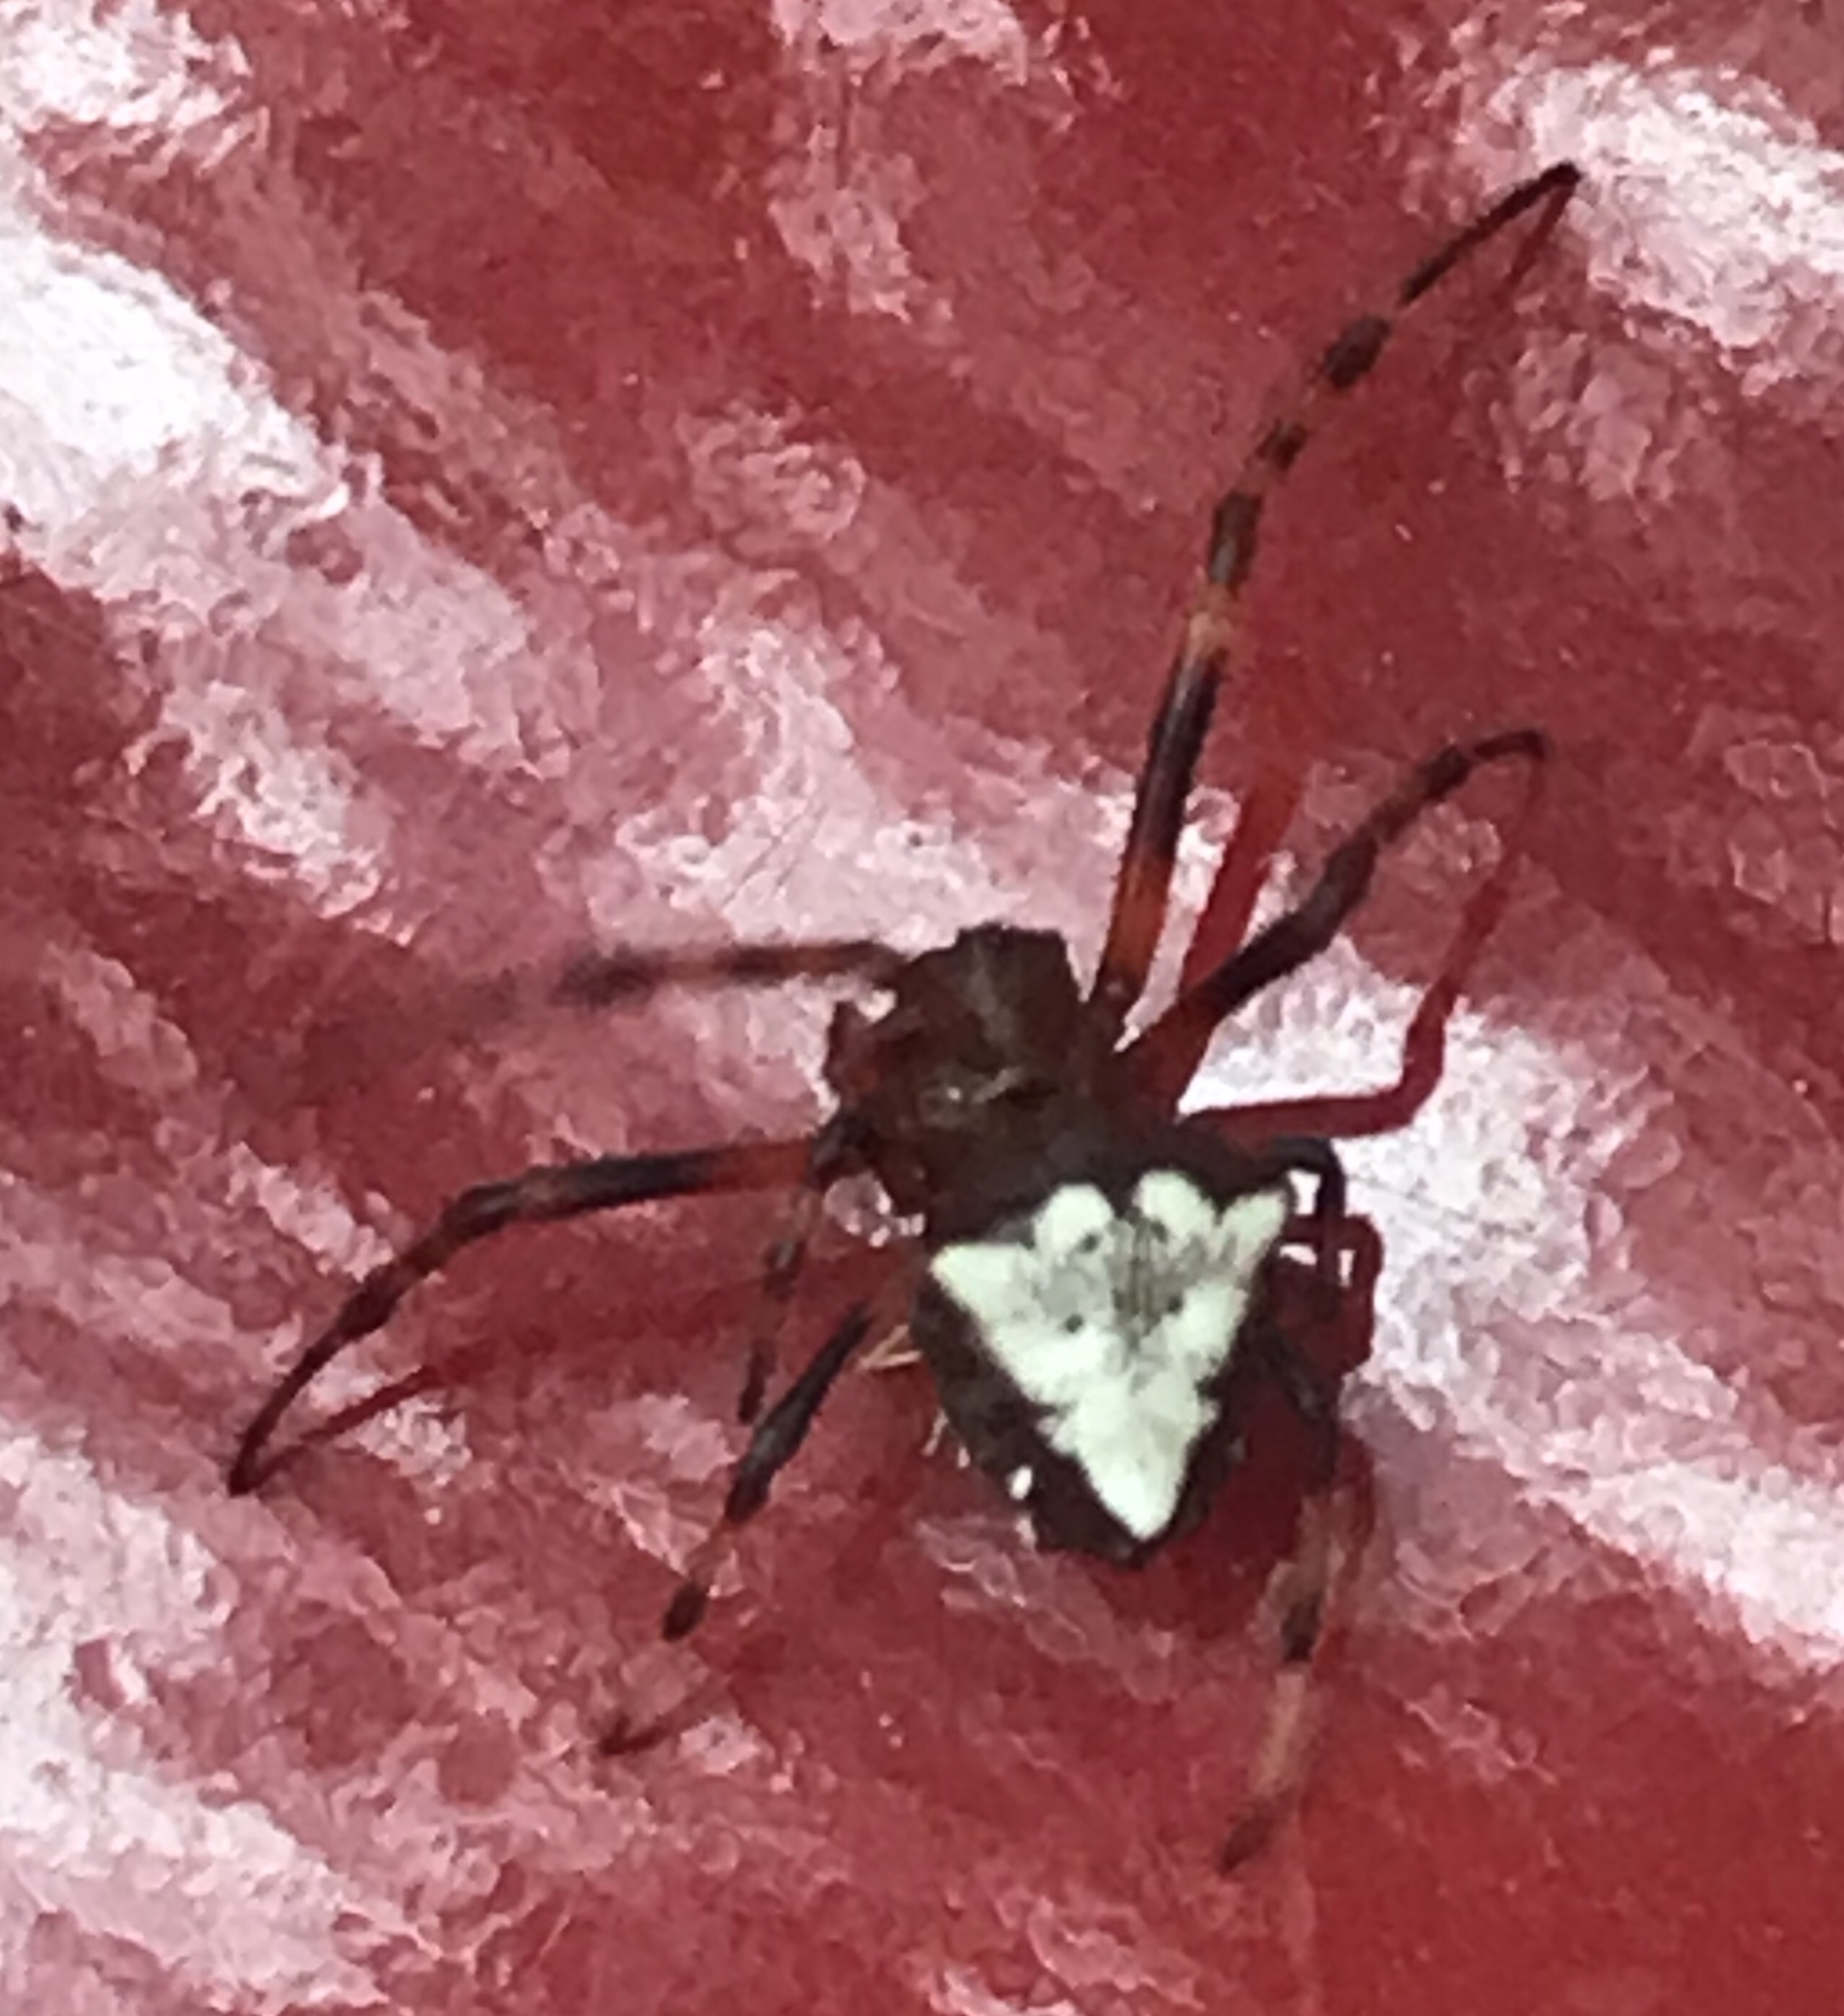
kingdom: Animalia
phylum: Arthropoda
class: Arachnida
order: Araneae
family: Araneidae
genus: Verrucosa
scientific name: Verrucosa arenata
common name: Orb weavers
